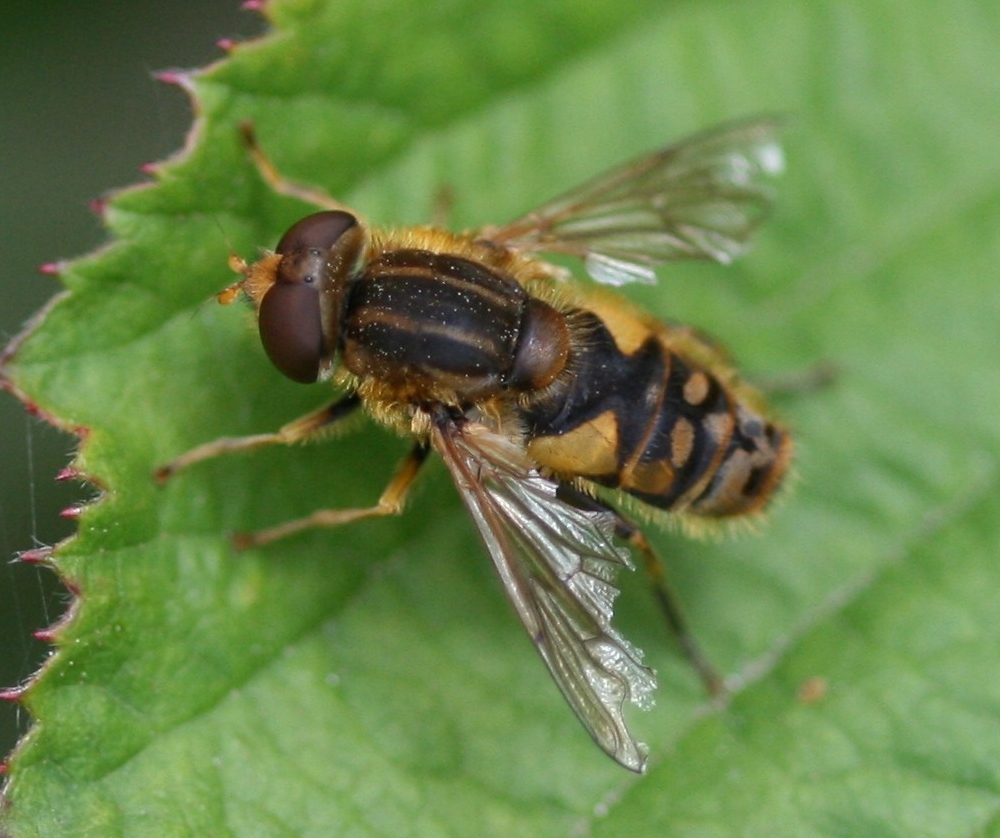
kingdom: Animalia
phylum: Arthropoda
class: Insecta
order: Diptera
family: Syrphidae
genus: Parhelophilus
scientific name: Parhelophilus
